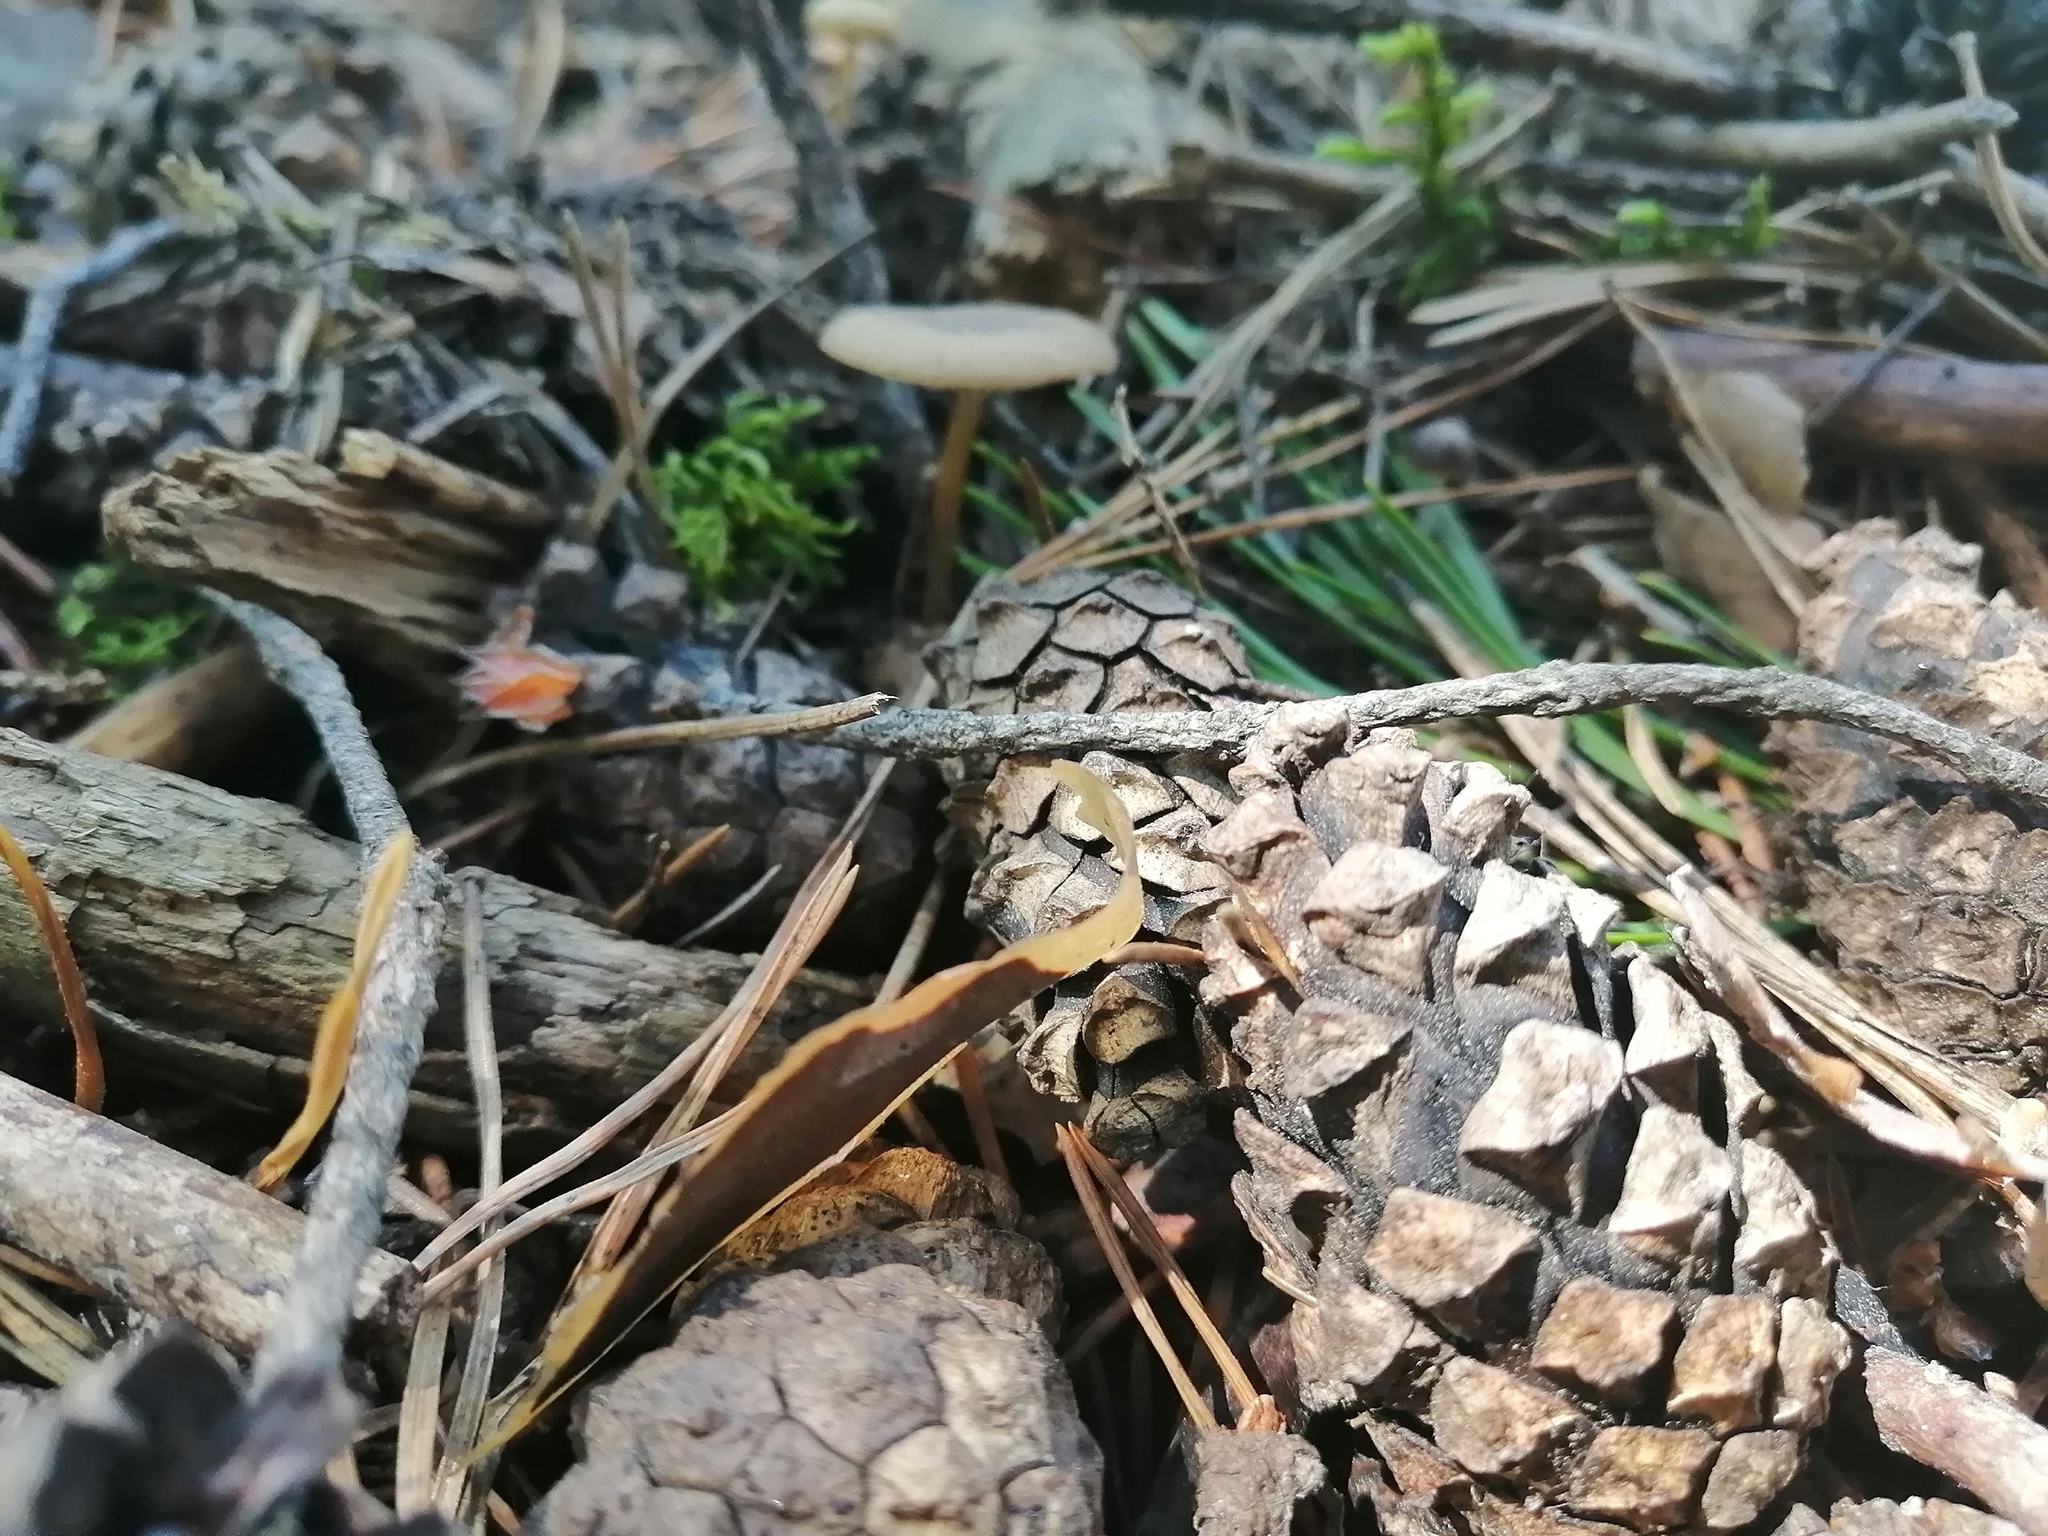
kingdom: Fungi
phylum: Basidiomycota
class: Agaricomycetes
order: Agaricales
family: Physalacriaceae
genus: Strobilurus
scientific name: Strobilurus stephanocystis
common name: Russian conecap
